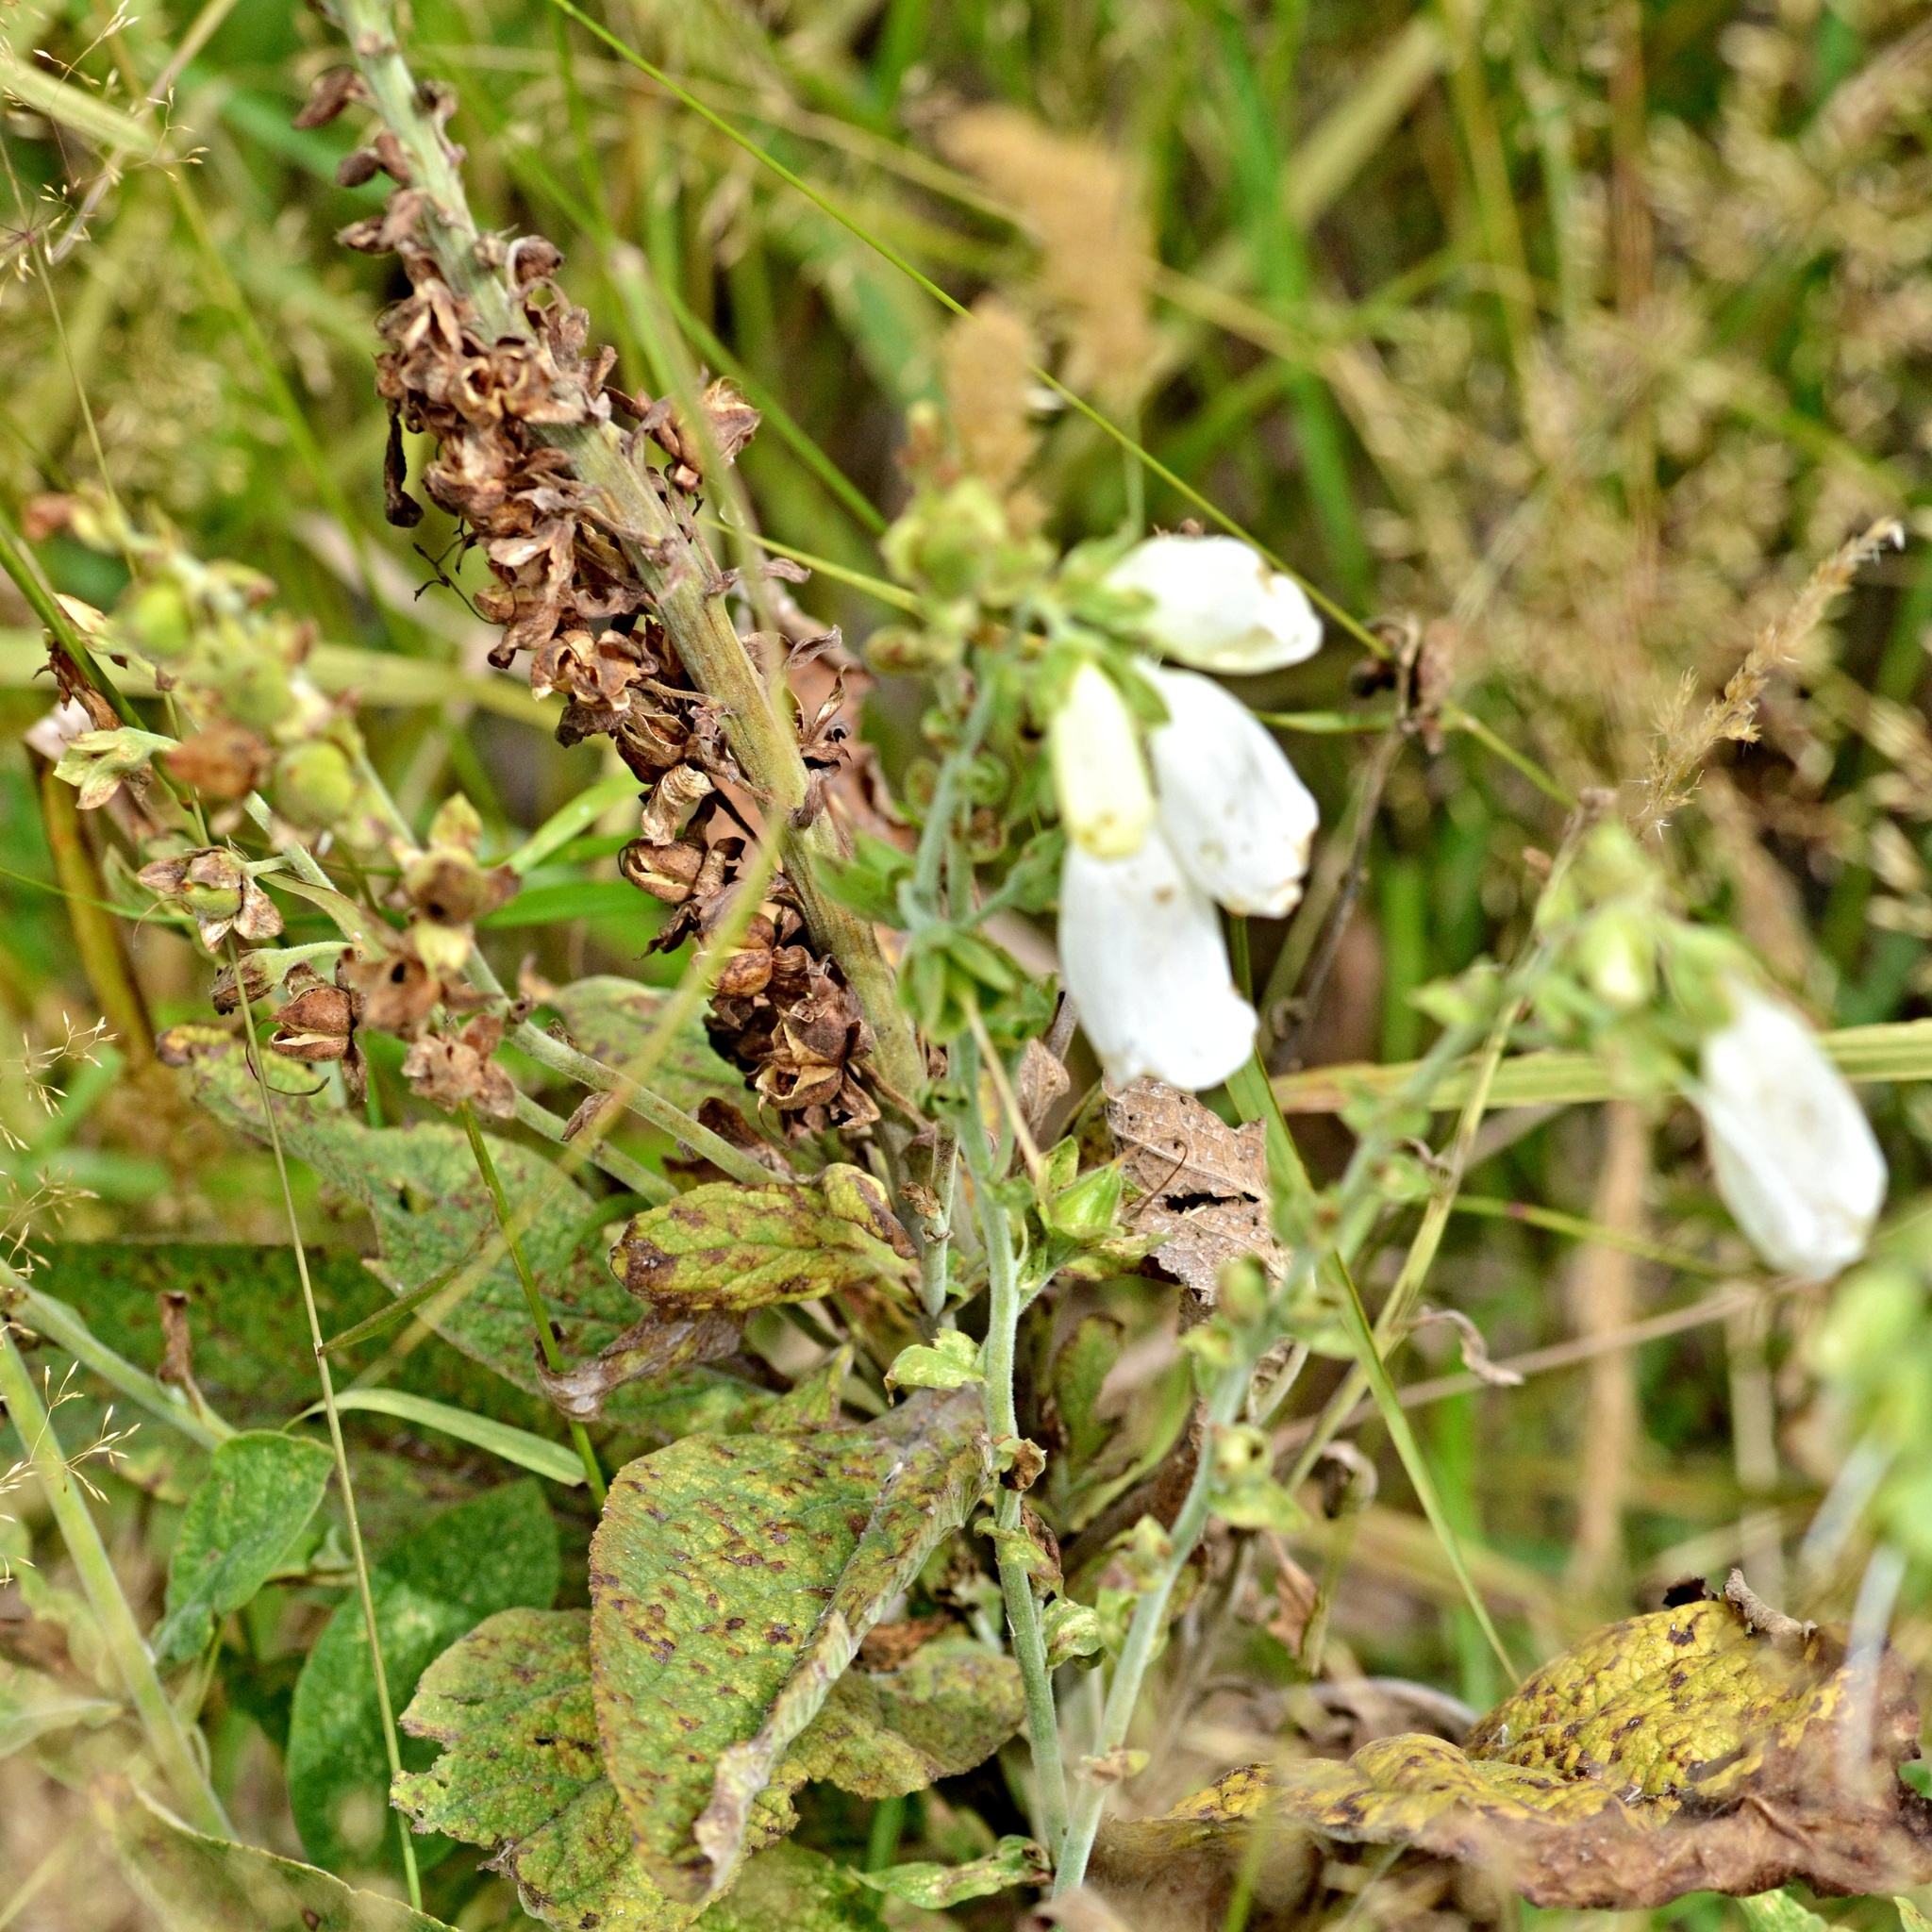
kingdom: Plantae
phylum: Tracheophyta
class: Magnoliopsida
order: Lamiales
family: Plantaginaceae
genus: Digitalis
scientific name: Digitalis purpurea
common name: Foxglove
